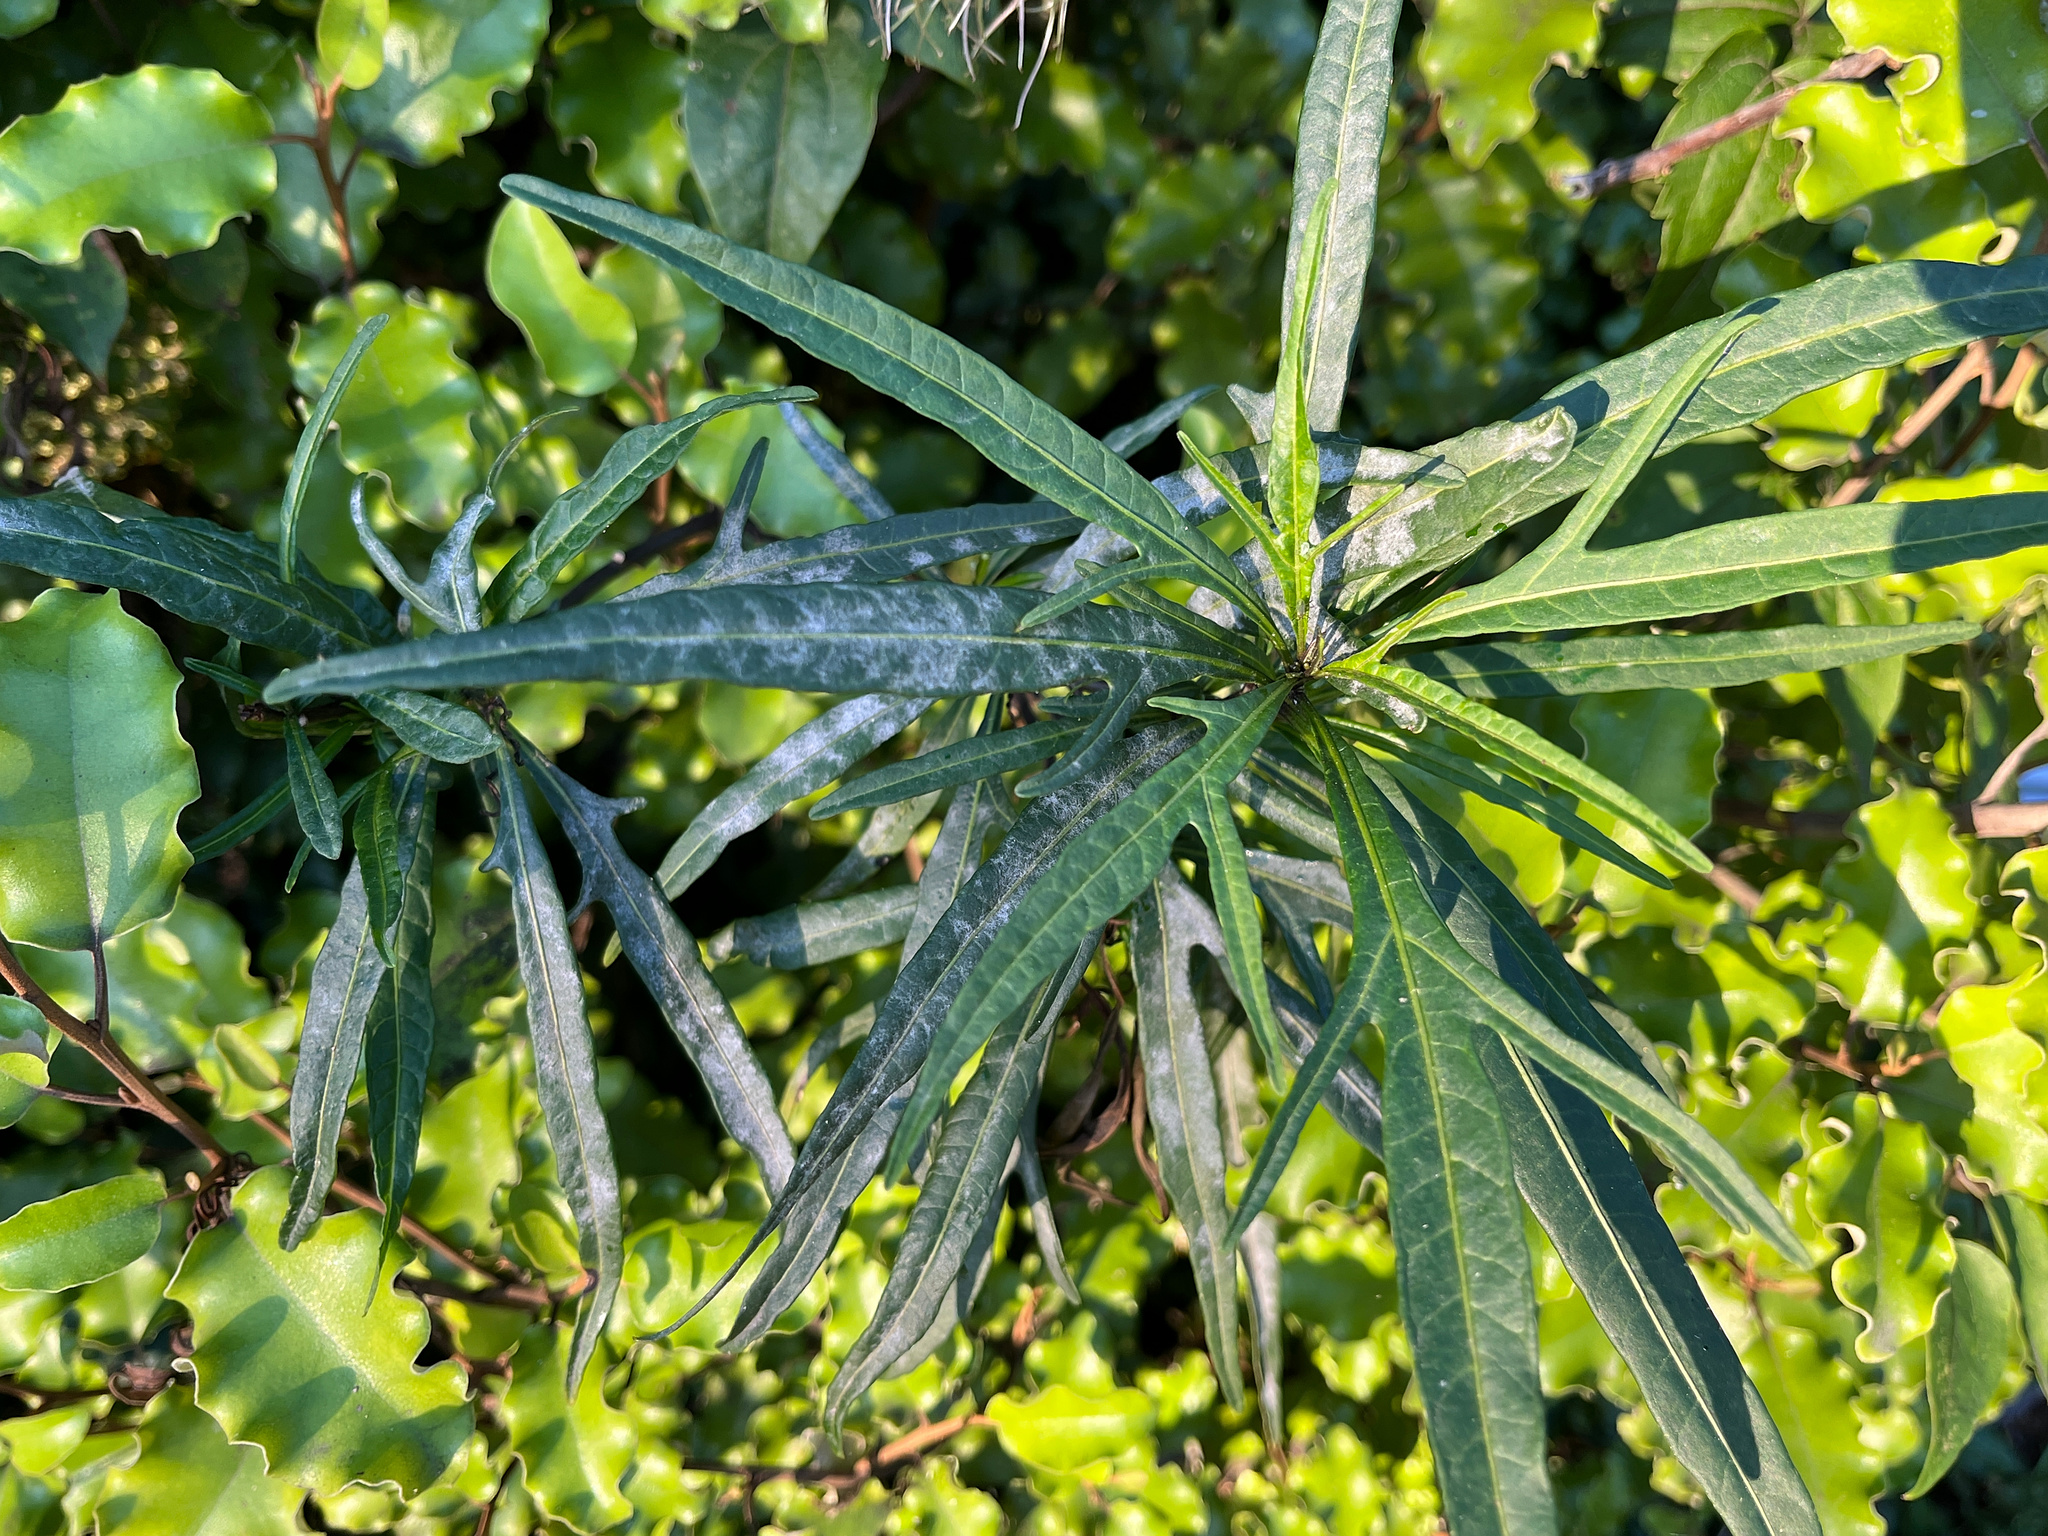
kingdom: Fungi
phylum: Ascomycota
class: Leotiomycetes
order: Helotiales
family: Erysiphaceae
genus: Golovinomyces
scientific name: Golovinomyces longipes
